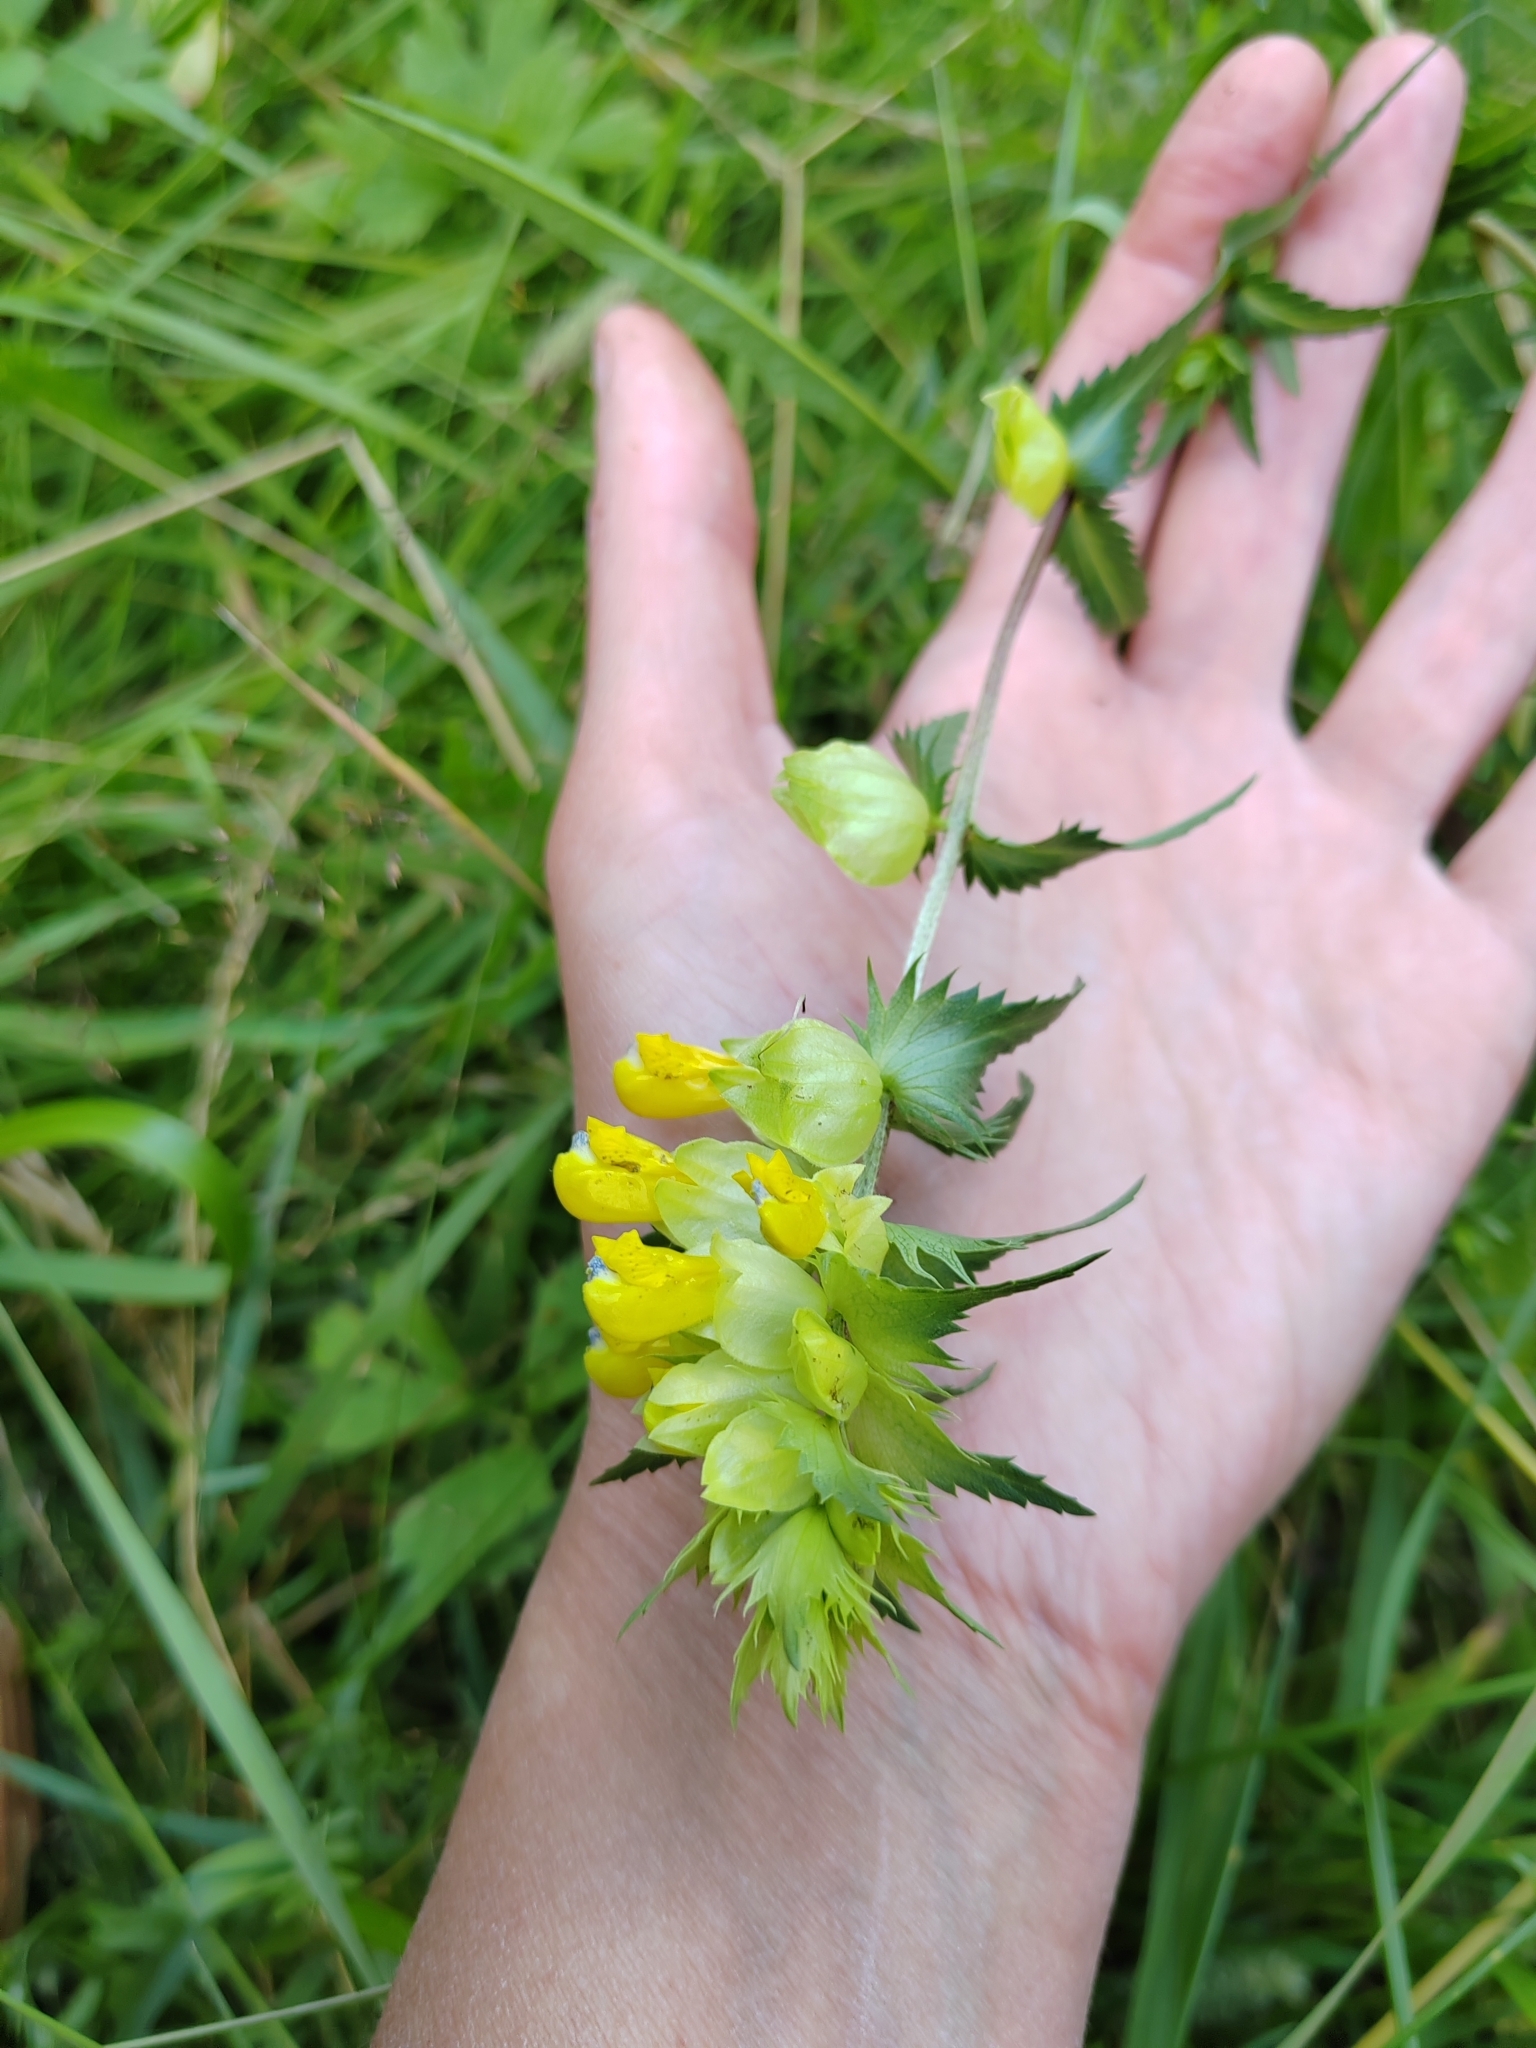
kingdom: Plantae
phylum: Tracheophyta
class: Magnoliopsida
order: Lamiales
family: Orobanchaceae
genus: Rhinanthus
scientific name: Rhinanthus serotinus
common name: Late-flowering yellow rattle
